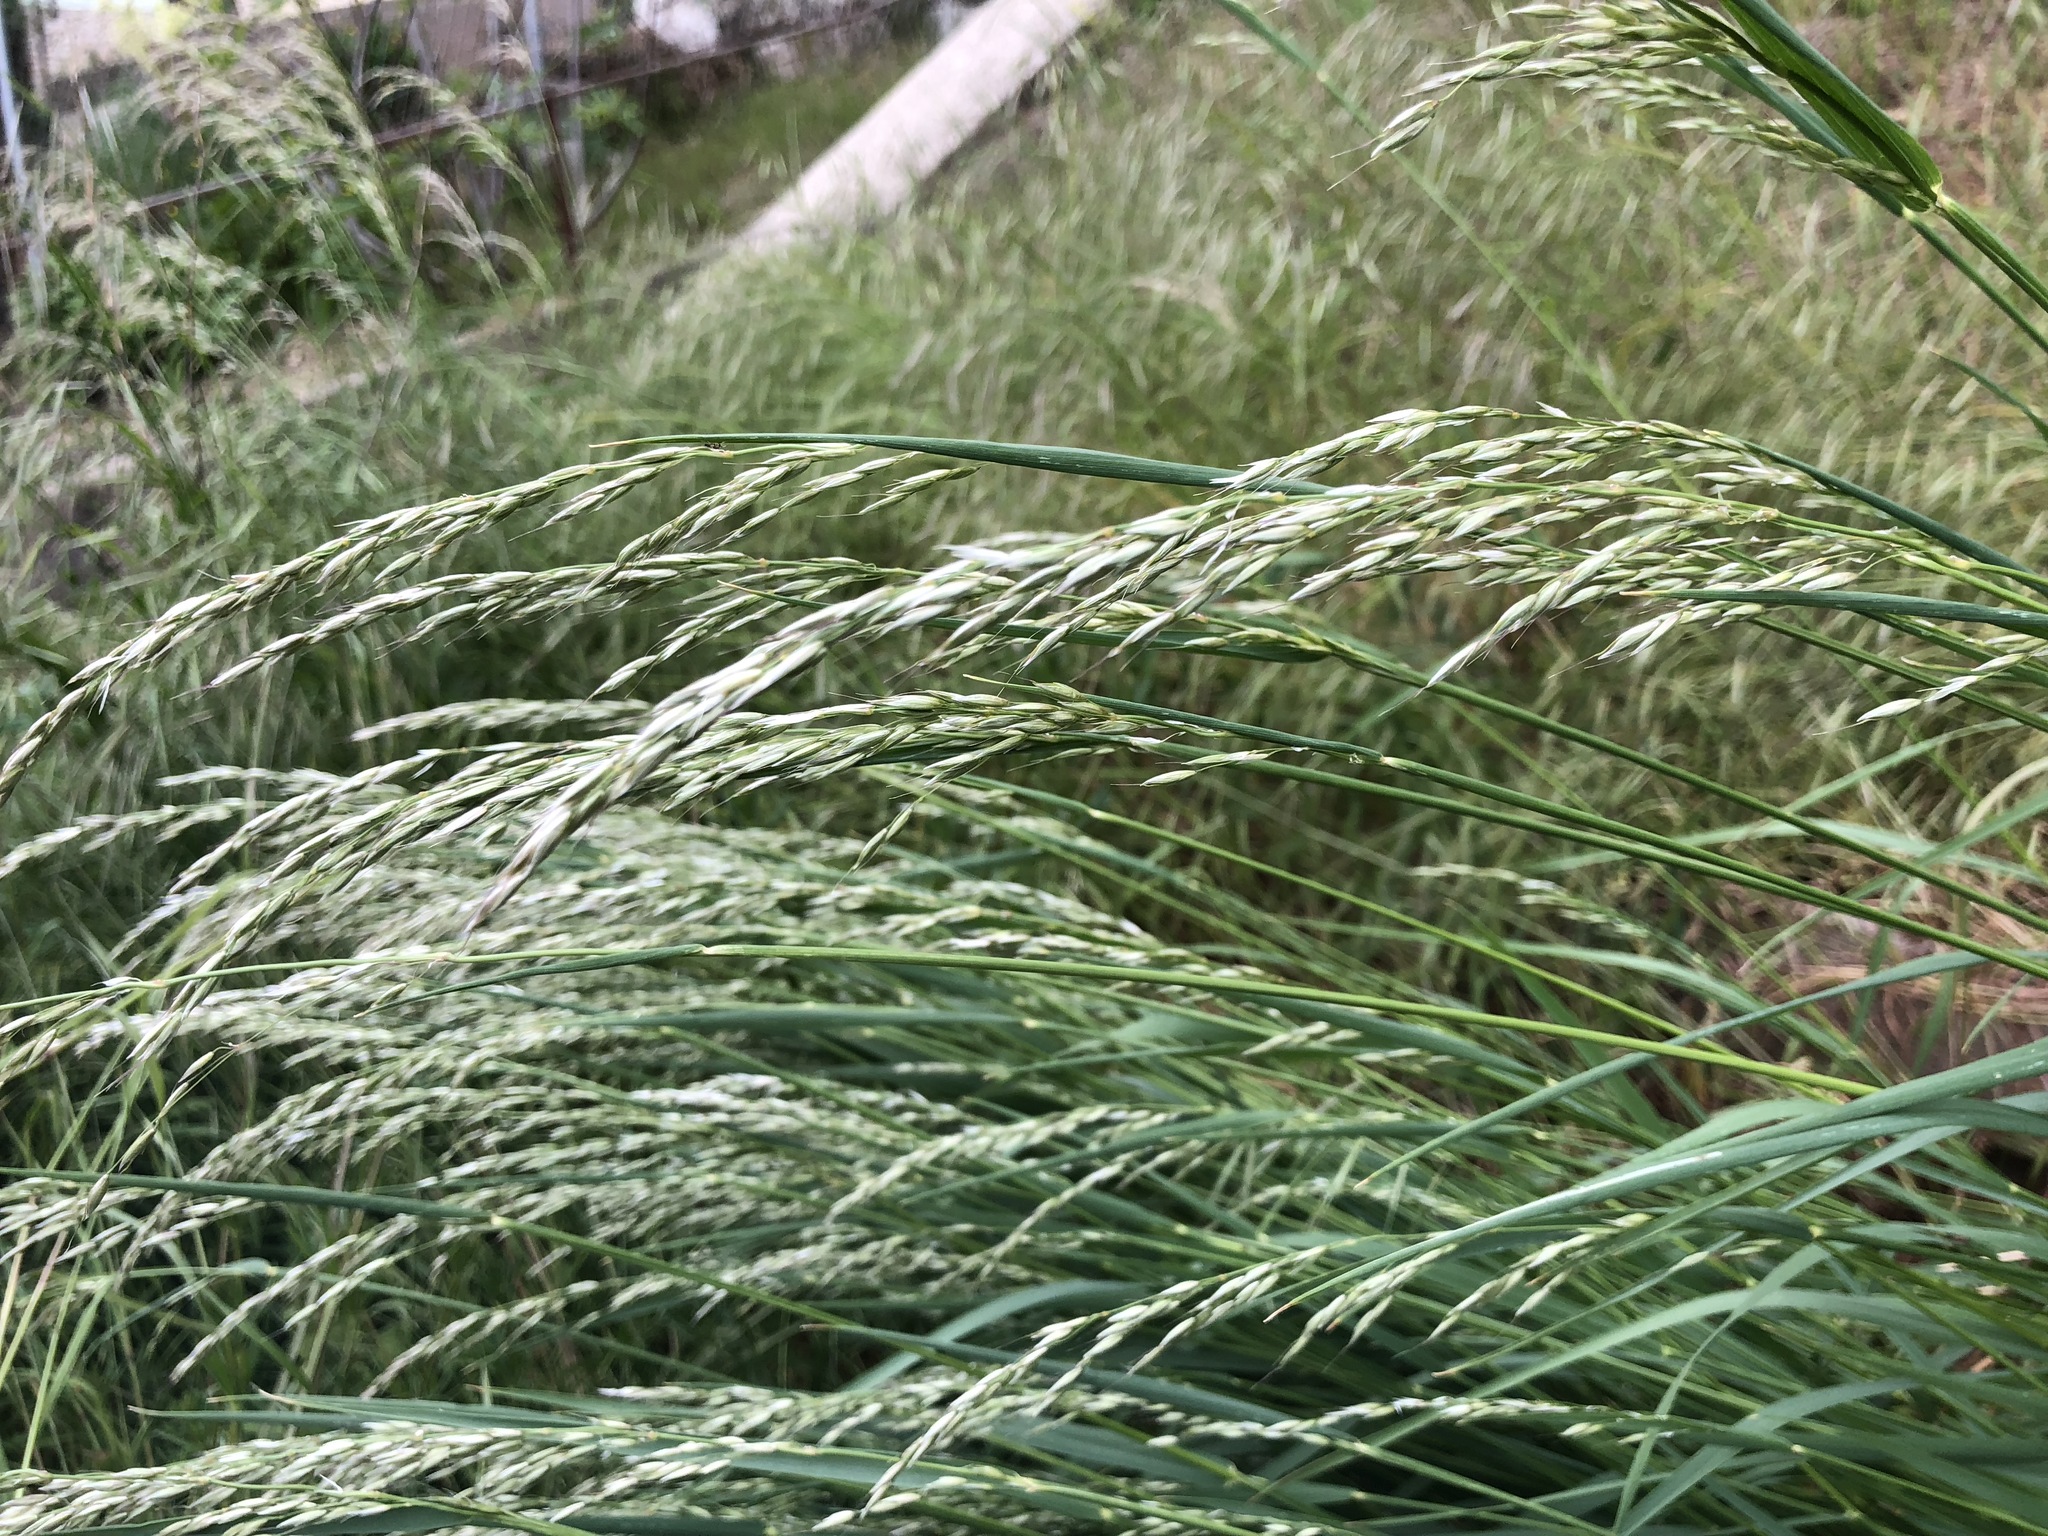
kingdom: Plantae
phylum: Tracheophyta
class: Liliopsida
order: Poales
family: Poaceae
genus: Arrhenatherum
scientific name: Arrhenatherum elatius
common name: Tall oatgrass
